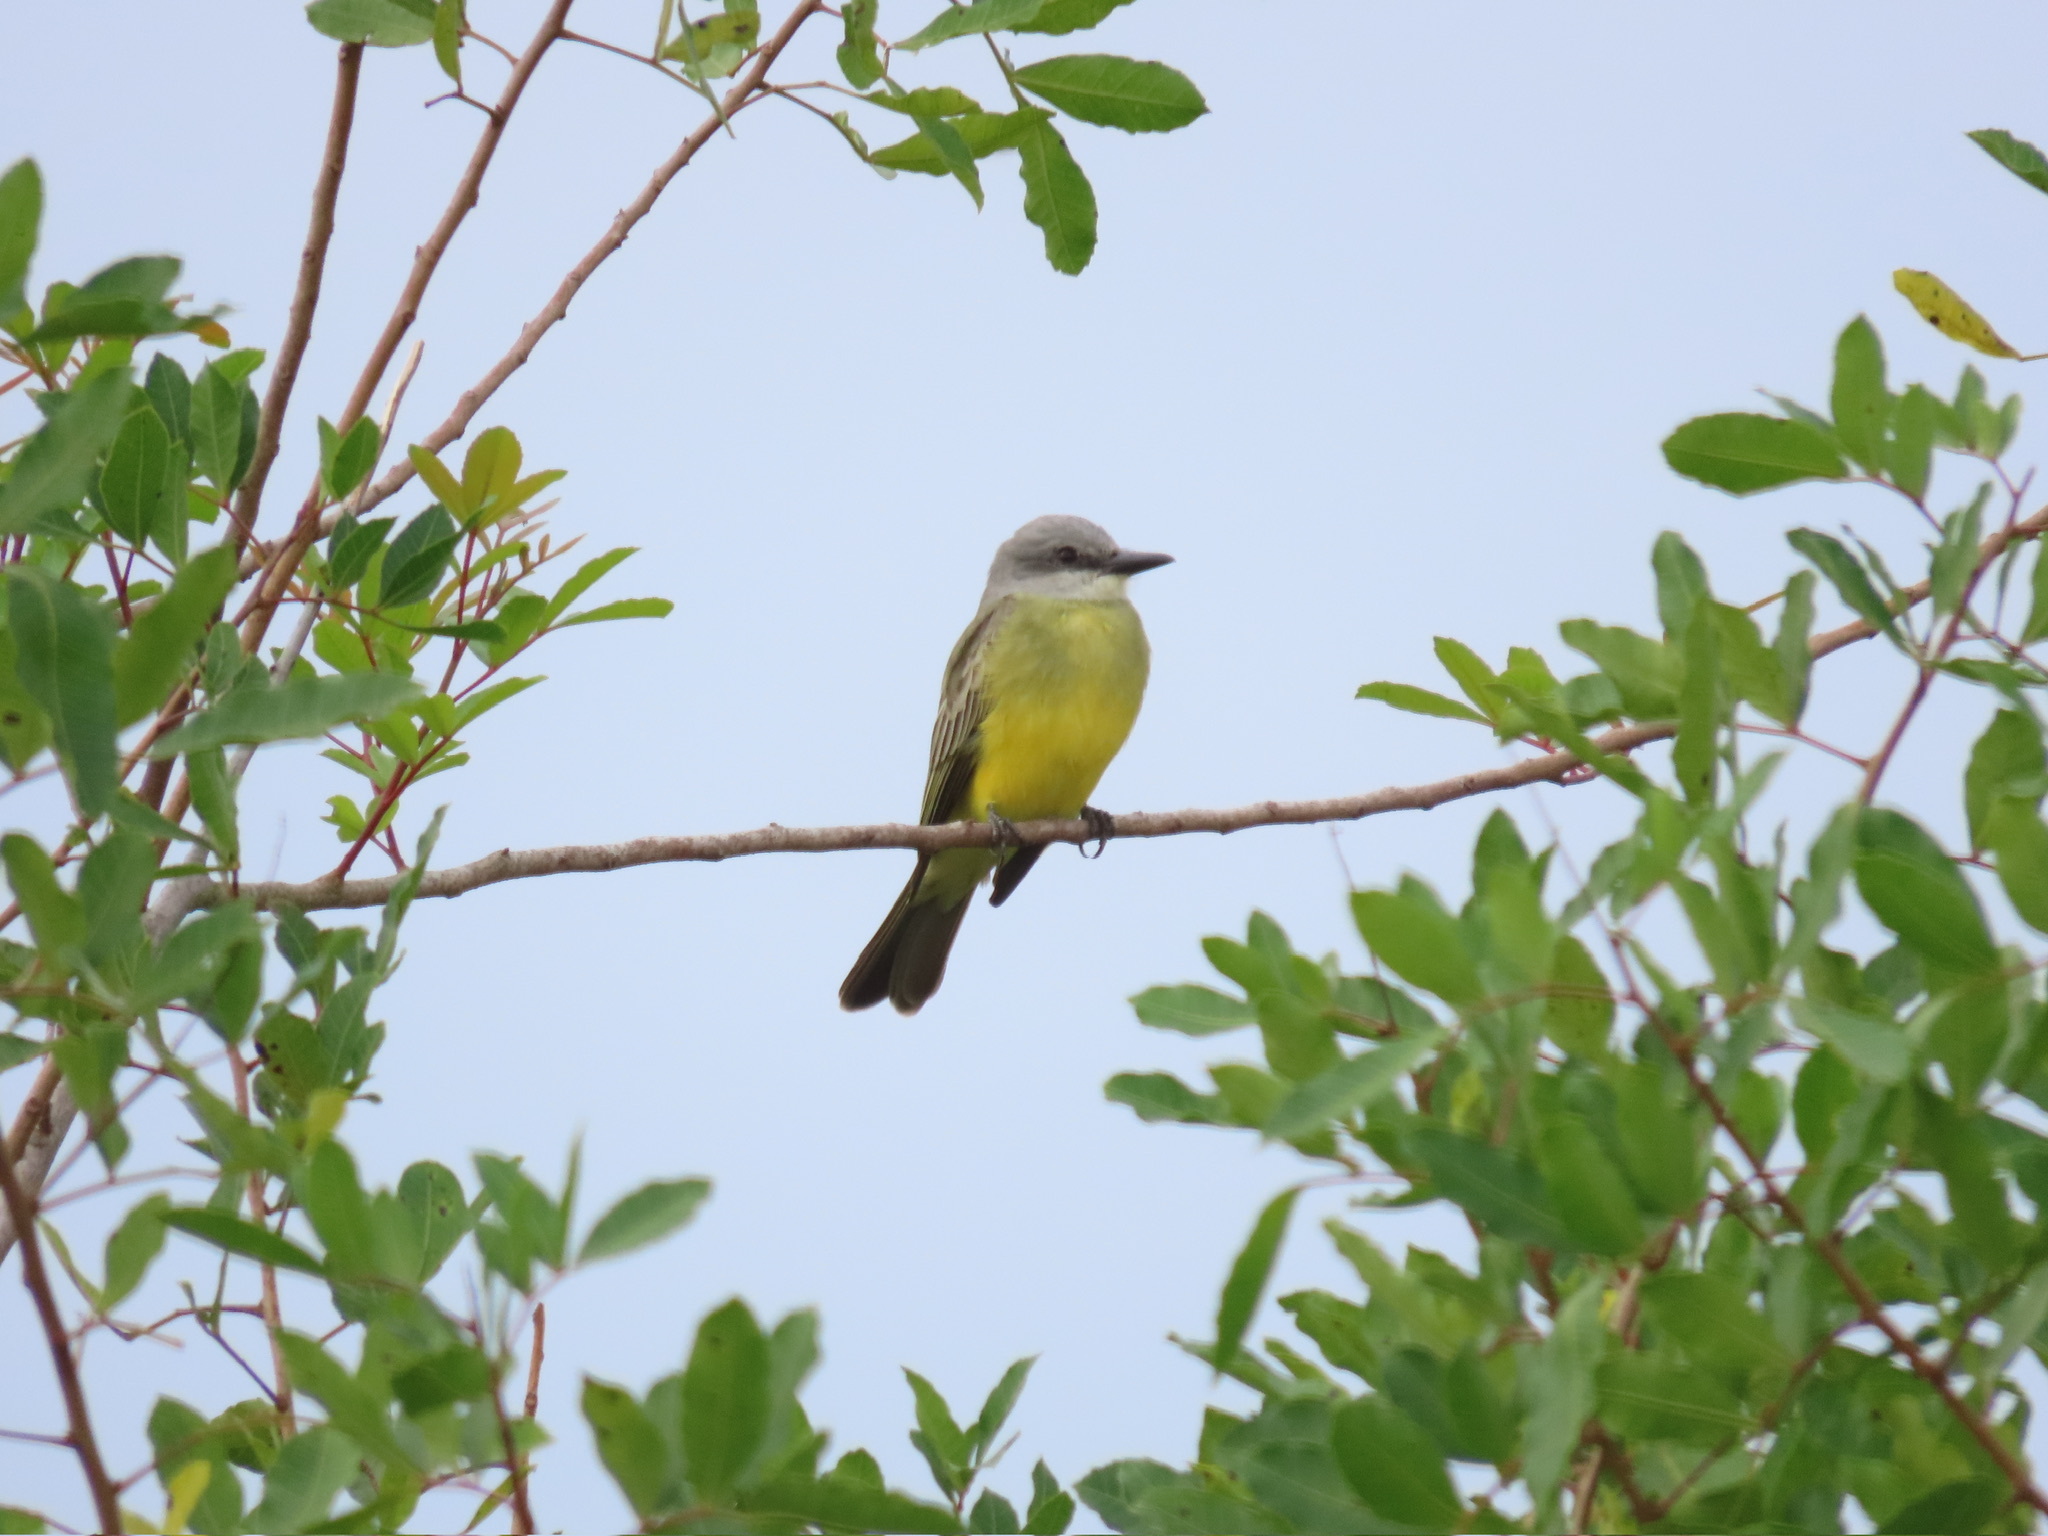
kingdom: Animalia
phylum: Chordata
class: Aves
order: Passeriformes
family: Tyrannidae
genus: Tyrannus
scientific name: Tyrannus melancholicus
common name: Tropical kingbird
